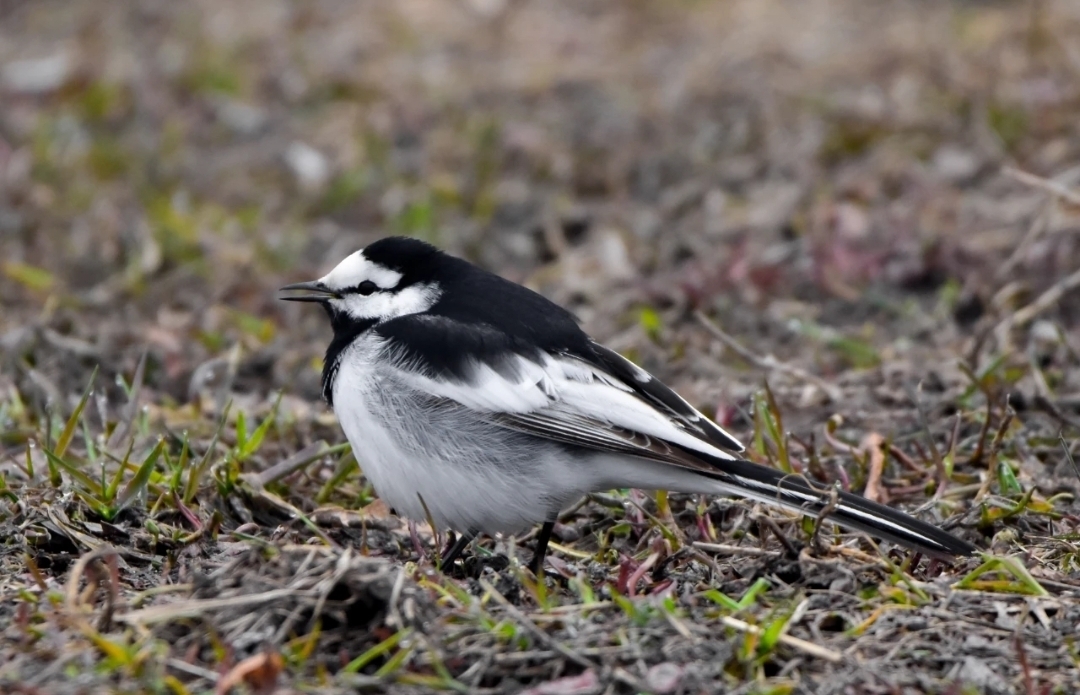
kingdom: Animalia
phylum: Chordata
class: Aves
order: Passeriformes
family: Motacillidae
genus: Motacilla
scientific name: Motacilla alba
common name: White wagtail
